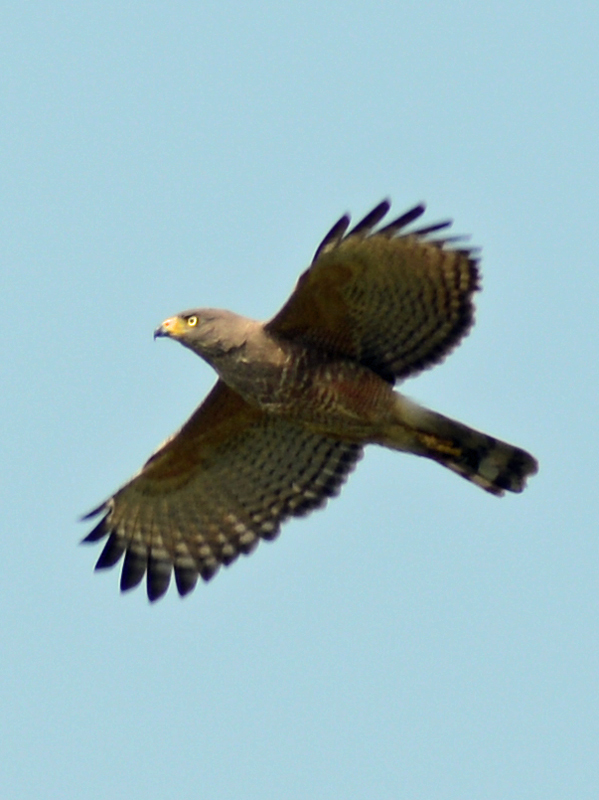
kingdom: Animalia
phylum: Chordata
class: Aves
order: Accipitriformes
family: Accipitridae
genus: Rupornis
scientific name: Rupornis magnirostris
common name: Roadside hawk
